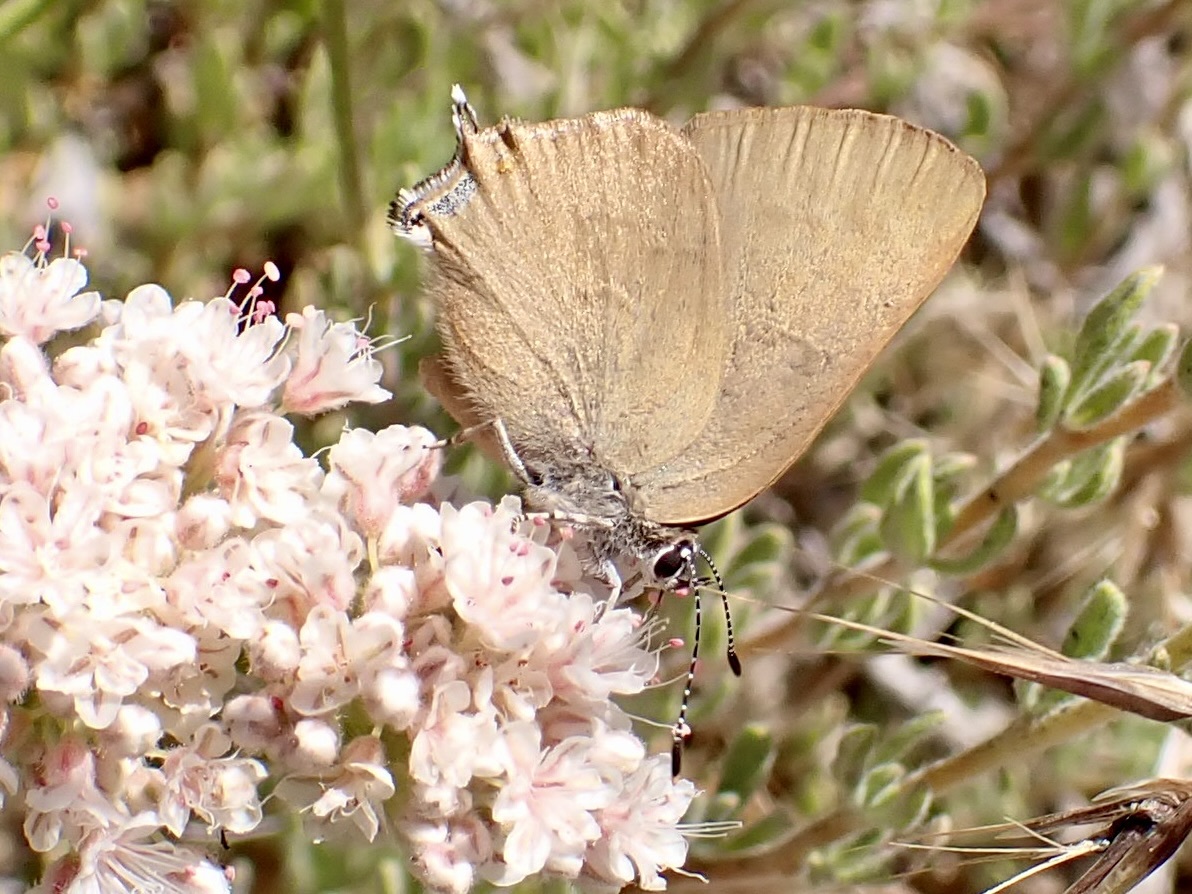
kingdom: Animalia
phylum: Arthropoda
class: Insecta
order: Lepidoptera
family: Lycaenidae
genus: Satyrium
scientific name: Satyrium calanus
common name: Banded hairstreak
